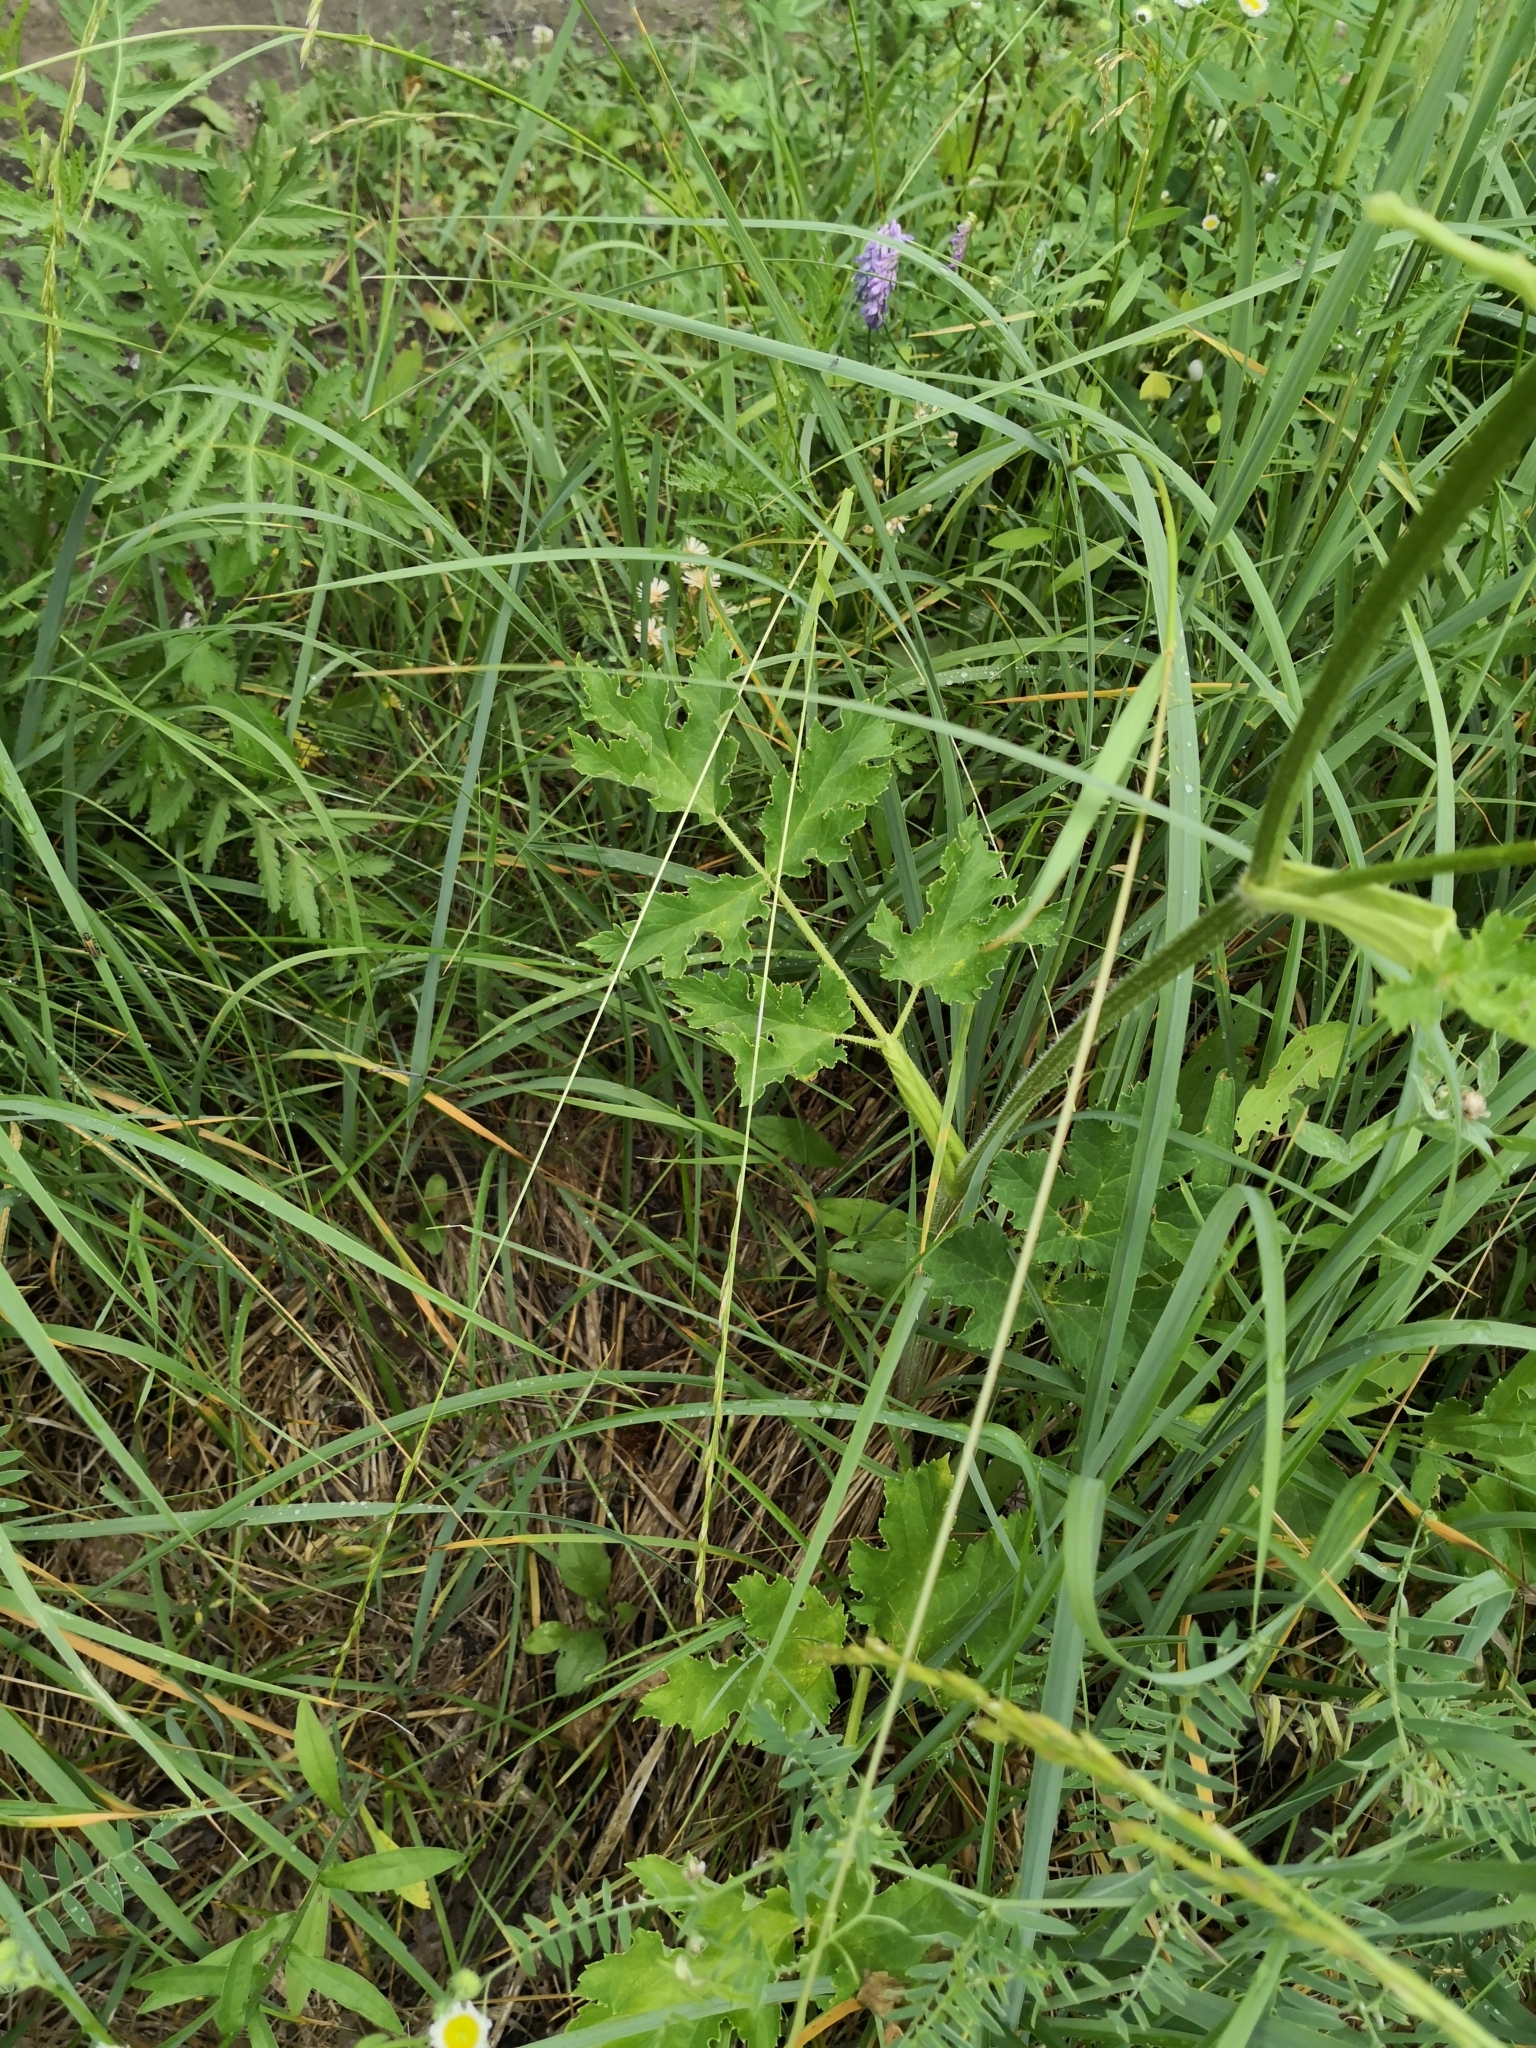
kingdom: Plantae
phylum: Tracheophyta
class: Magnoliopsida
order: Apiales
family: Apiaceae
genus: Heracleum
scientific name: Heracleum sphondylium
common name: Hogweed
